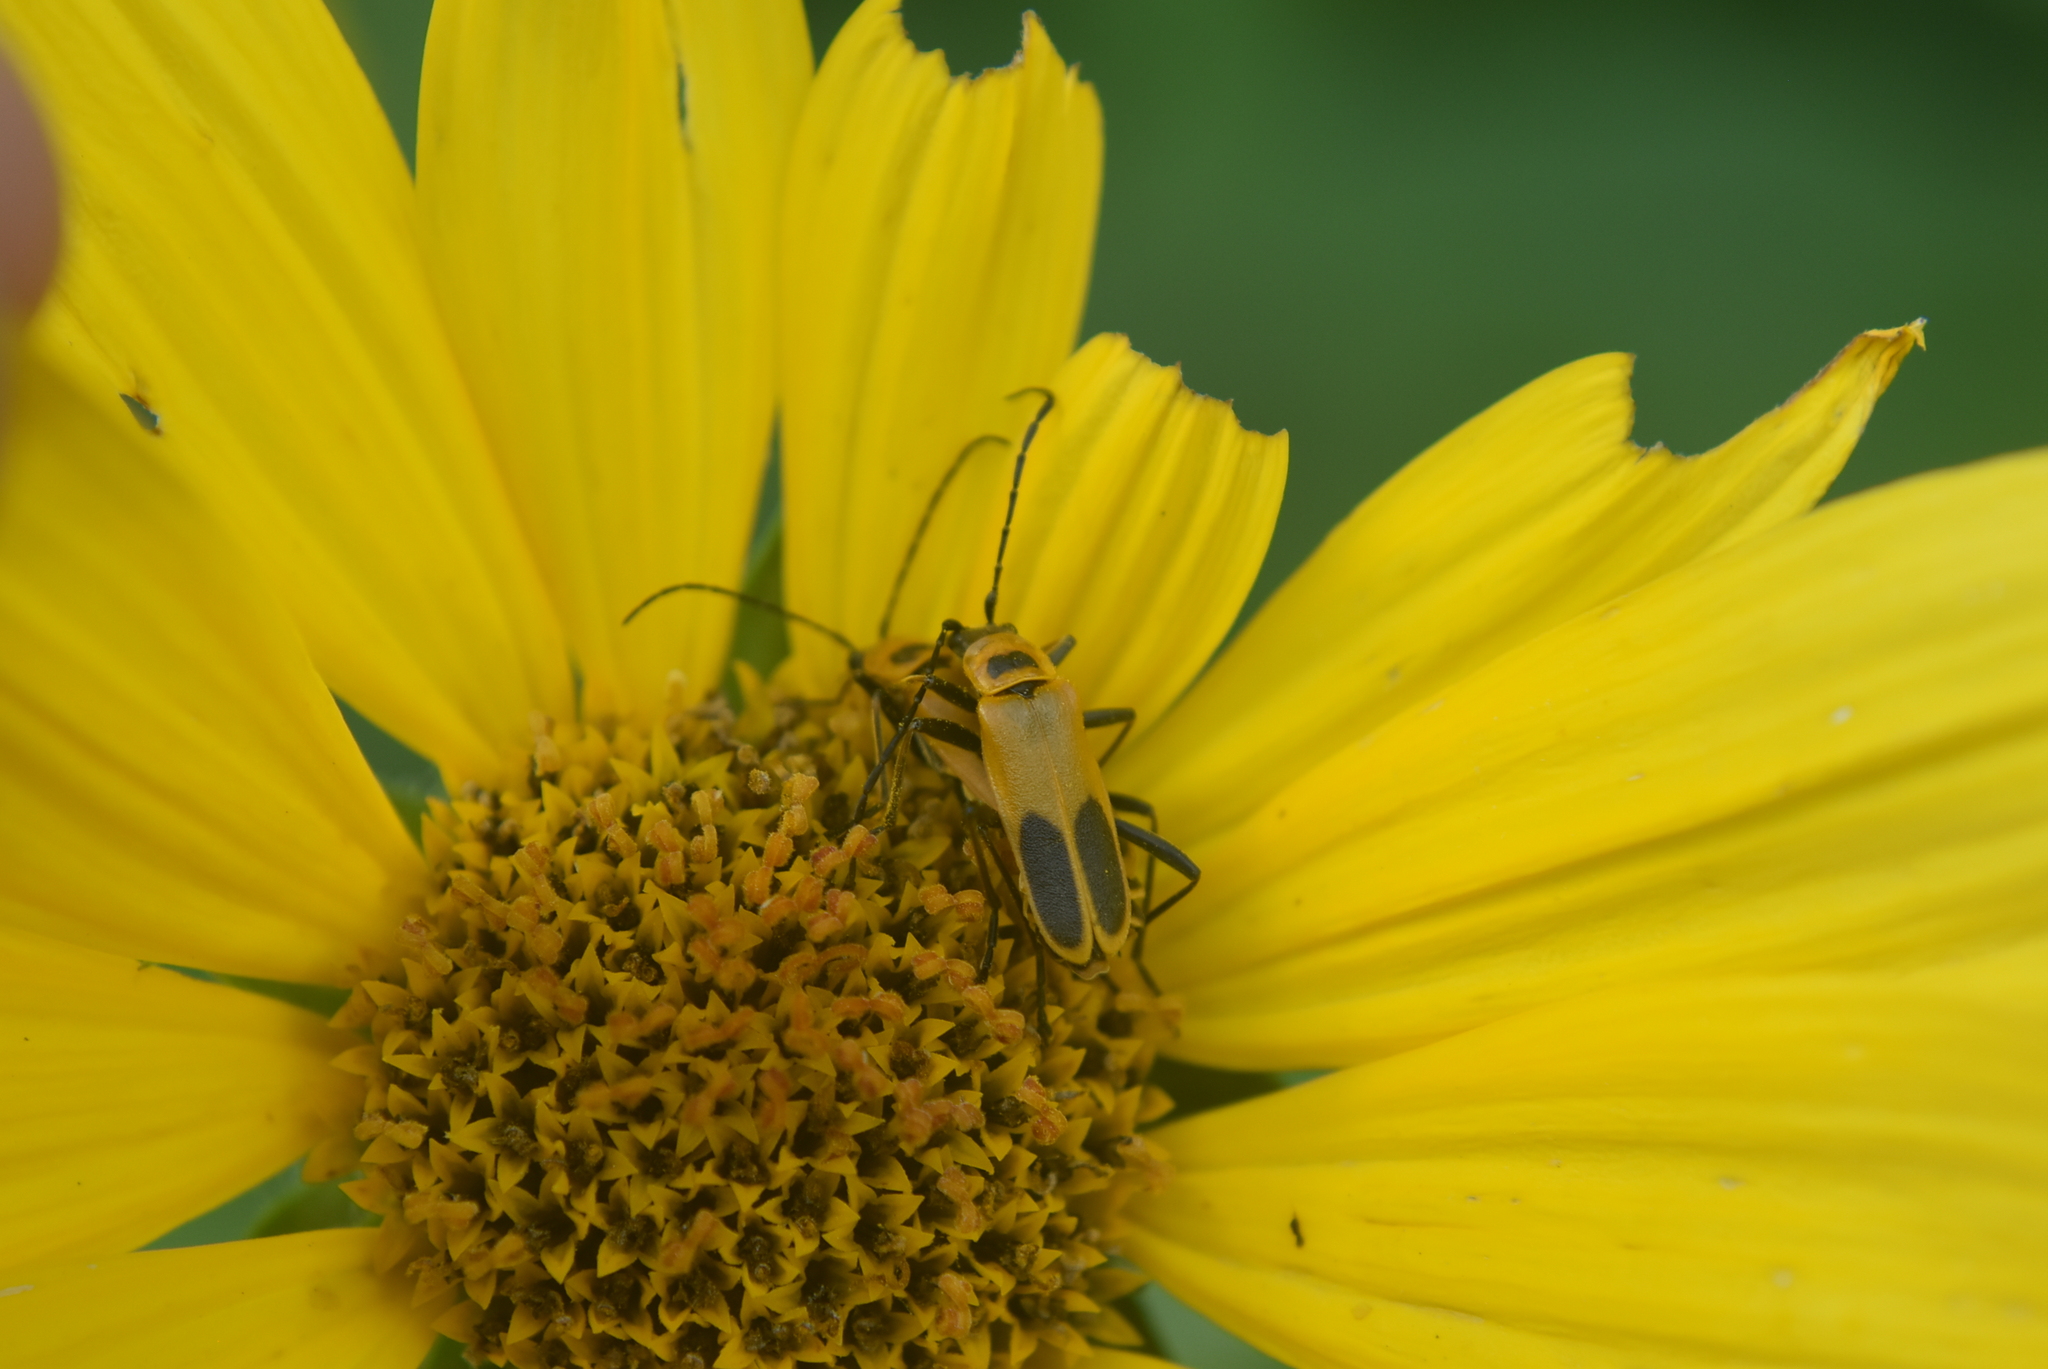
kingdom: Animalia
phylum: Arthropoda
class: Insecta
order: Coleoptera
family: Cantharidae
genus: Chauliognathus
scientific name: Chauliognathus pensylvanicus
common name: Goldenrod soldier beetle
